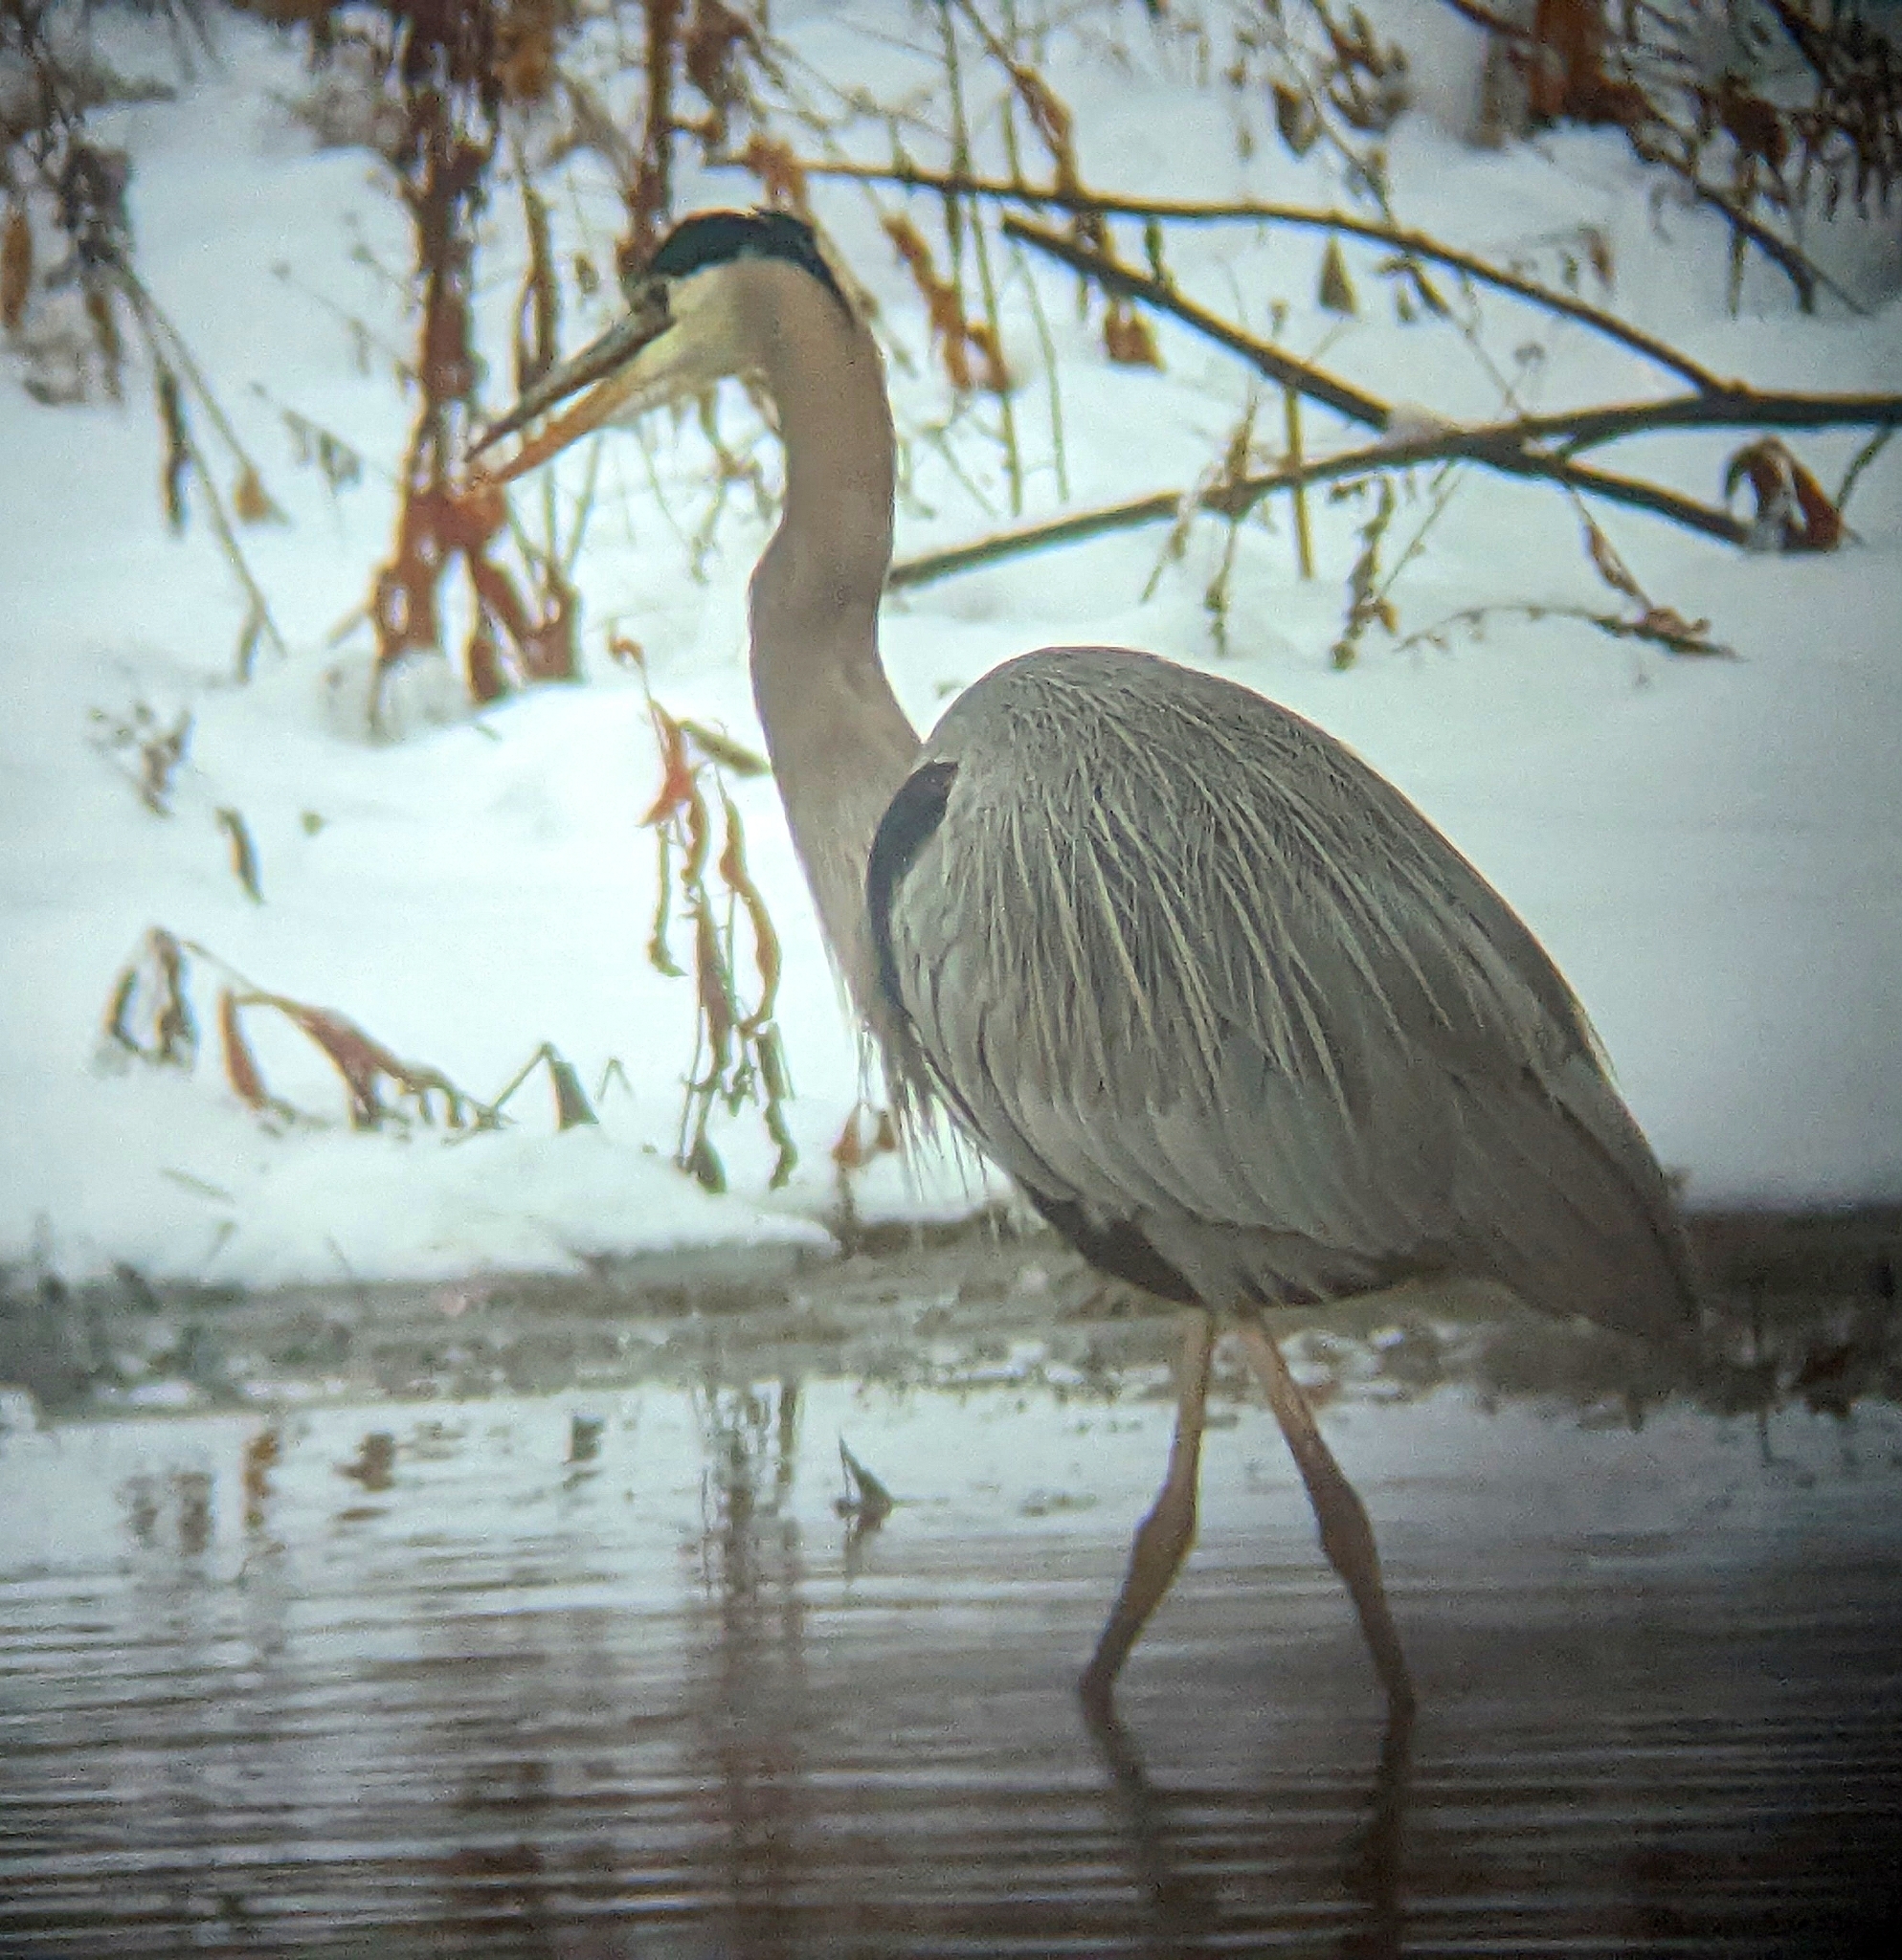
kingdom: Animalia
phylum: Chordata
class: Aves
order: Pelecaniformes
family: Ardeidae
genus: Ardea
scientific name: Ardea herodias
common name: Great blue heron
